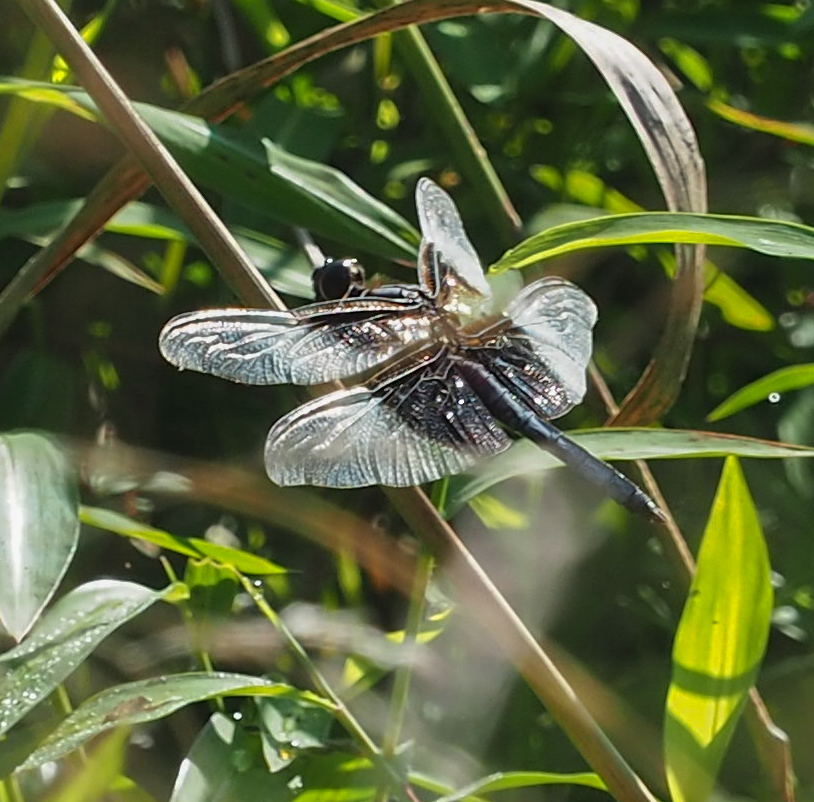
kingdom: Animalia
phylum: Arthropoda
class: Insecta
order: Odonata
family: Libellulidae
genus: Libellula
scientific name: Libellula luctuosa
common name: Widow skimmer
